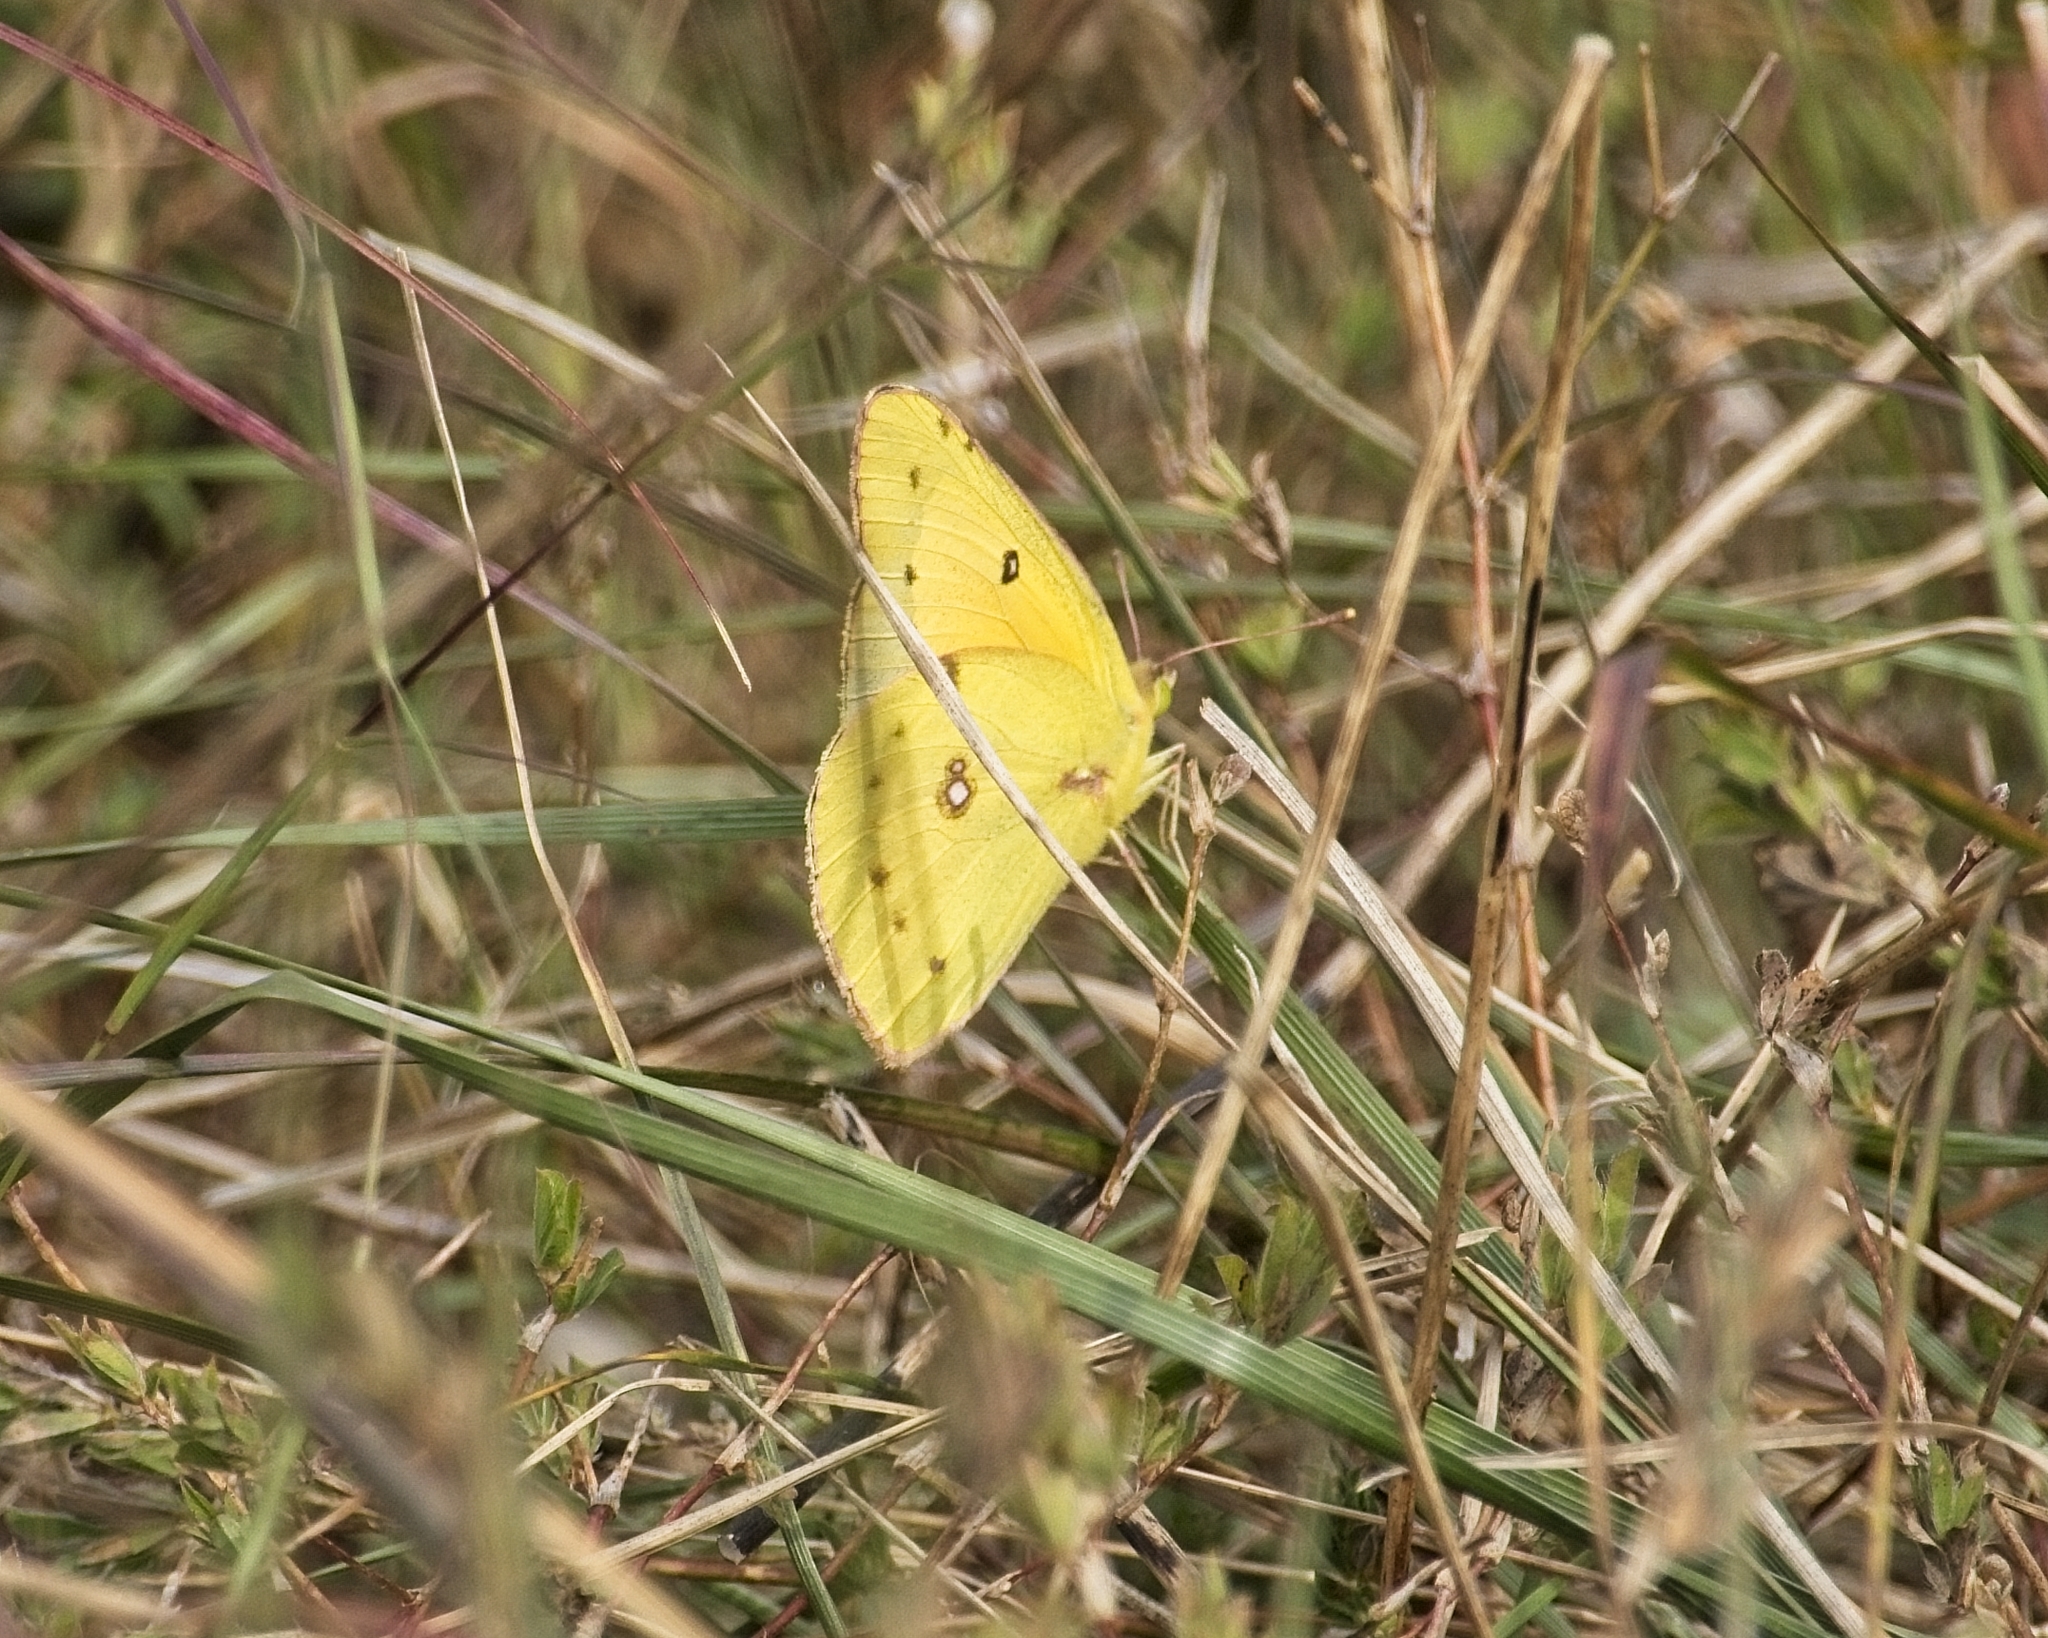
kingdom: Animalia
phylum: Arthropoda
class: Insecta
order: Lepidoptera
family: Pieridae
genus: Colias
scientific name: Colias eurytheme
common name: Alfalfa butterfly
